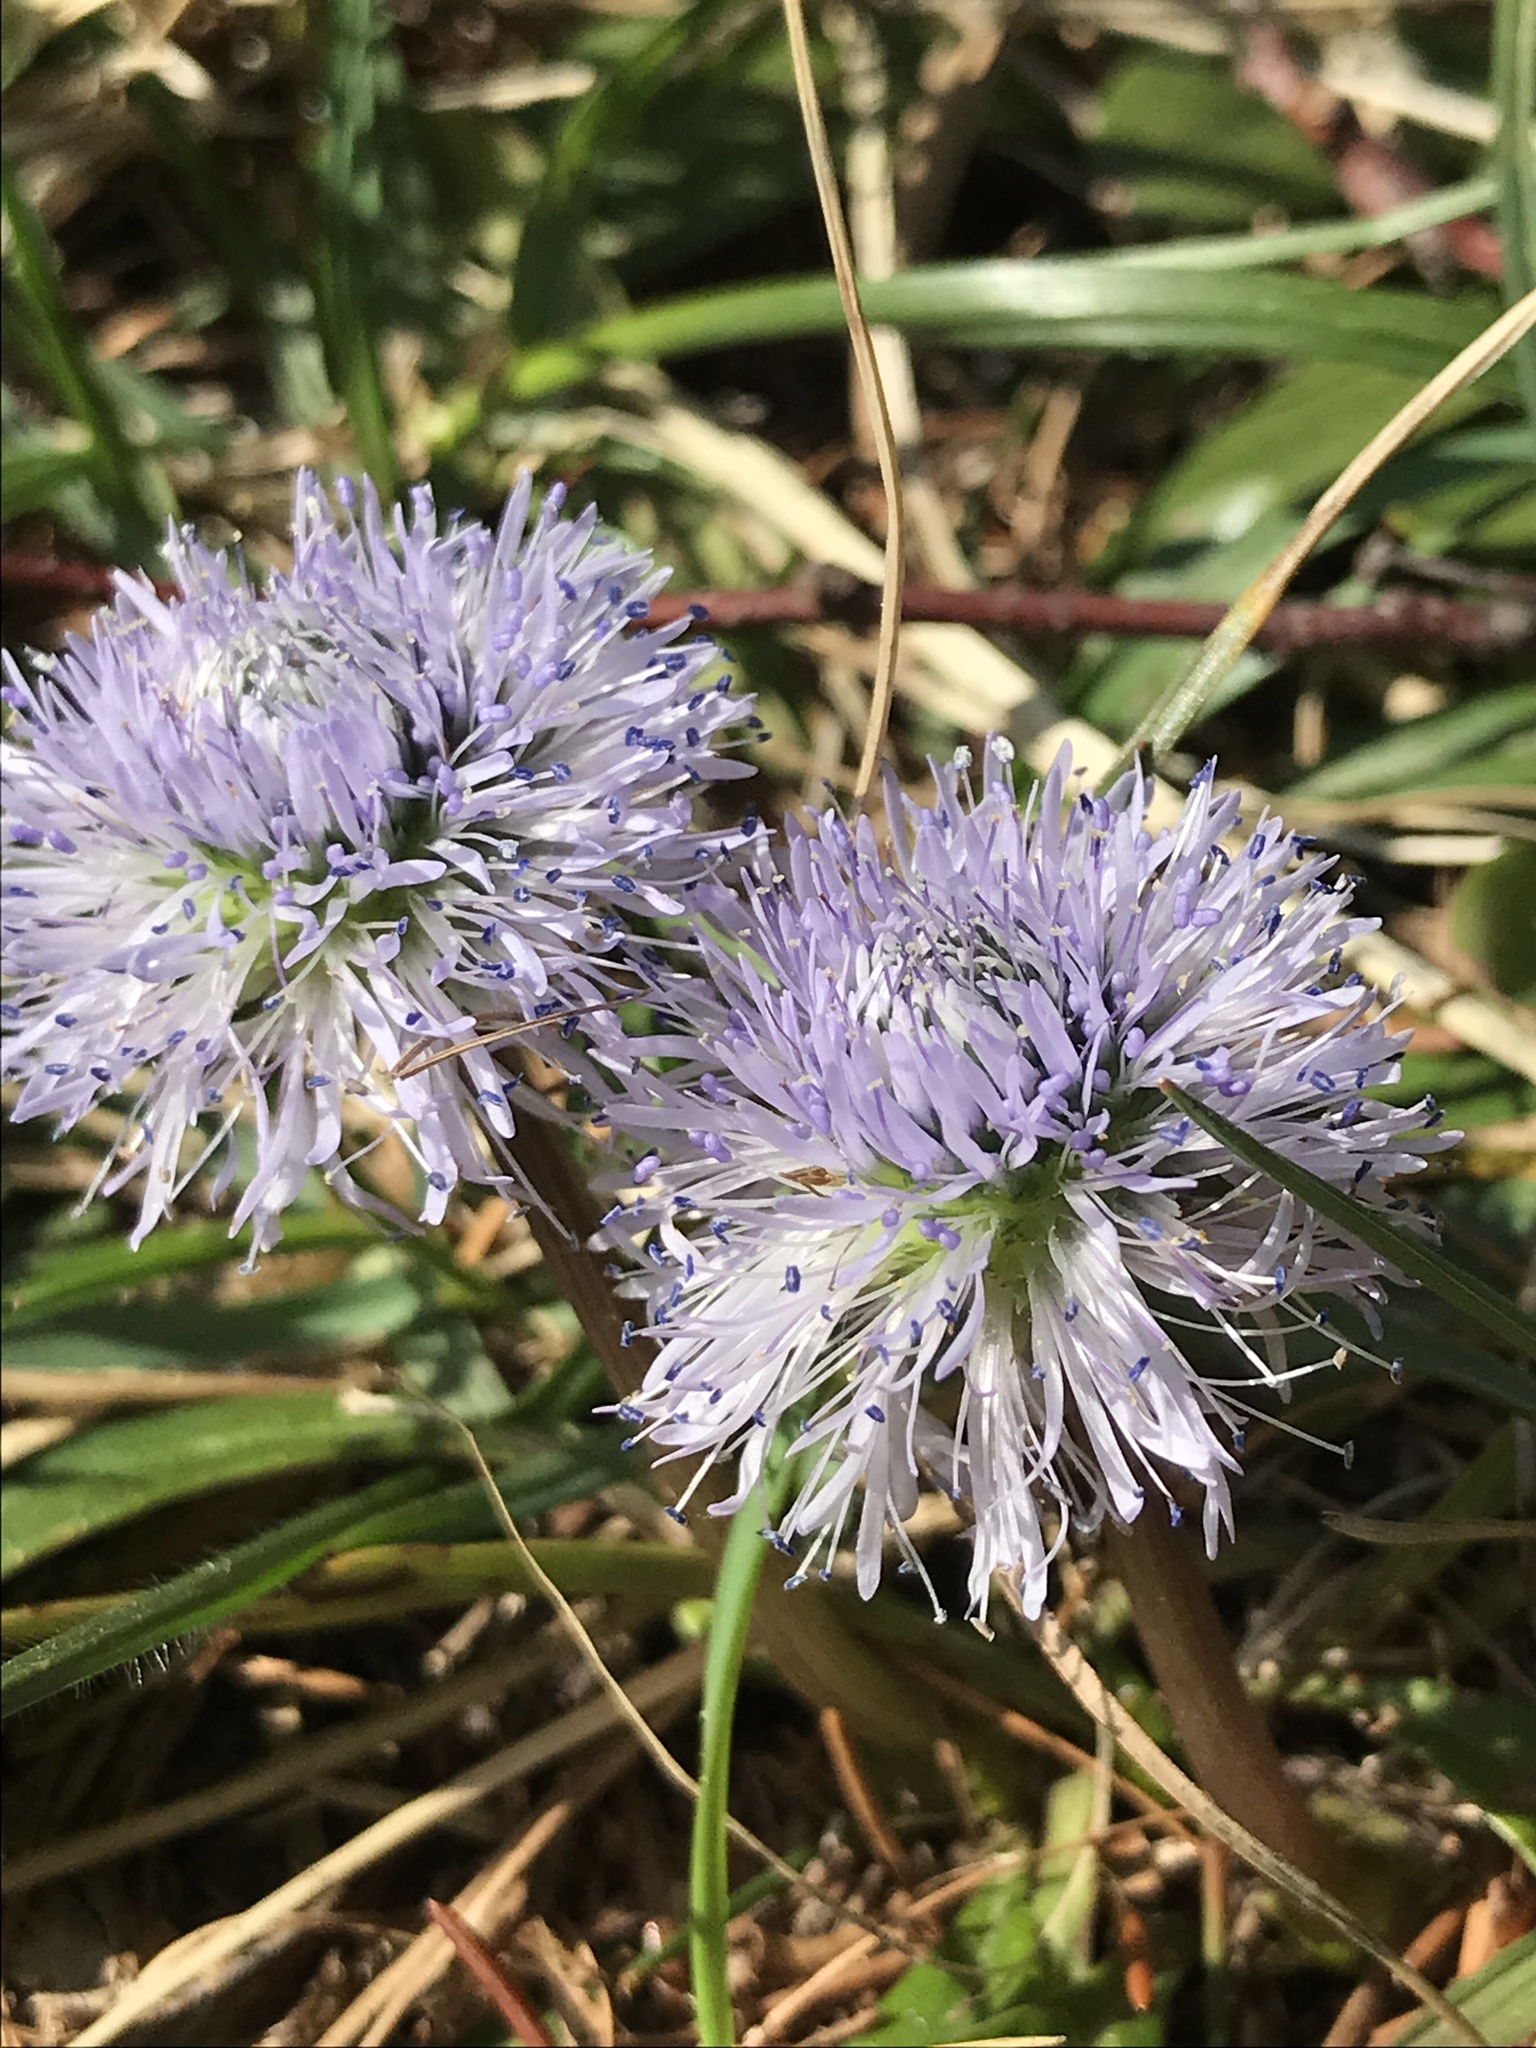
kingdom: Plantae
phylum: Tracheophyta
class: Magnoliopsida
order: Lamiales
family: Plantaginaceae
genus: Globularia
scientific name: Globularia nudicaulis
